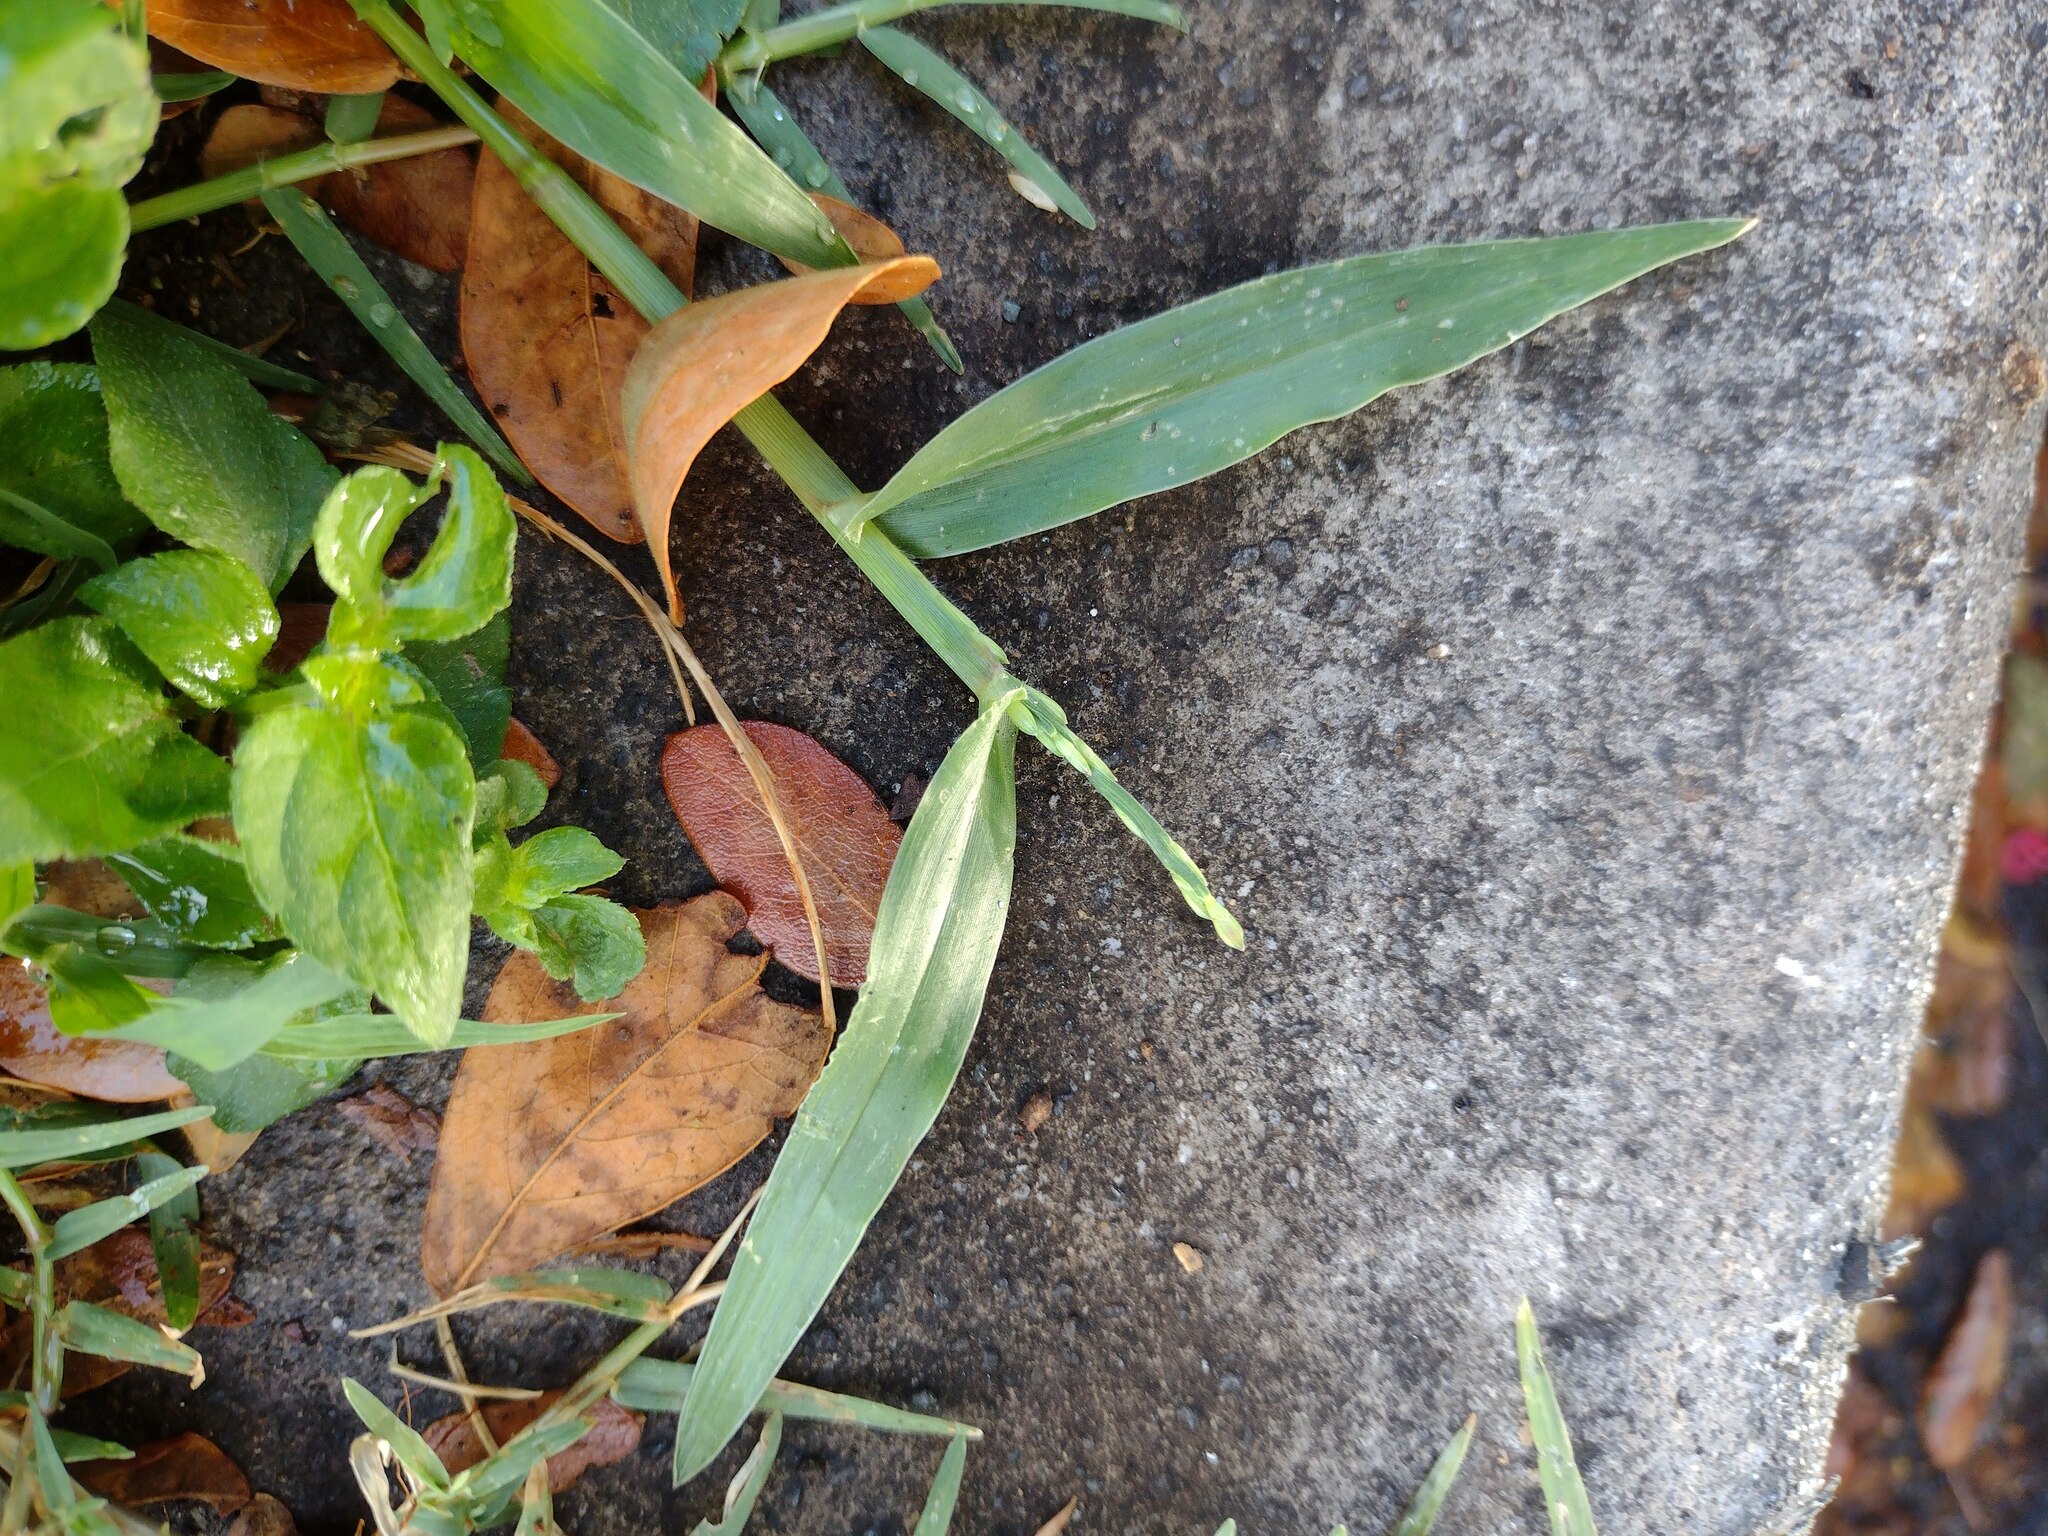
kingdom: Plantae
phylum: Tracheophyta
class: Liliopsida
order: Poales
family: Poaceae
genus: Urochloa
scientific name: Urochloa distachyos
